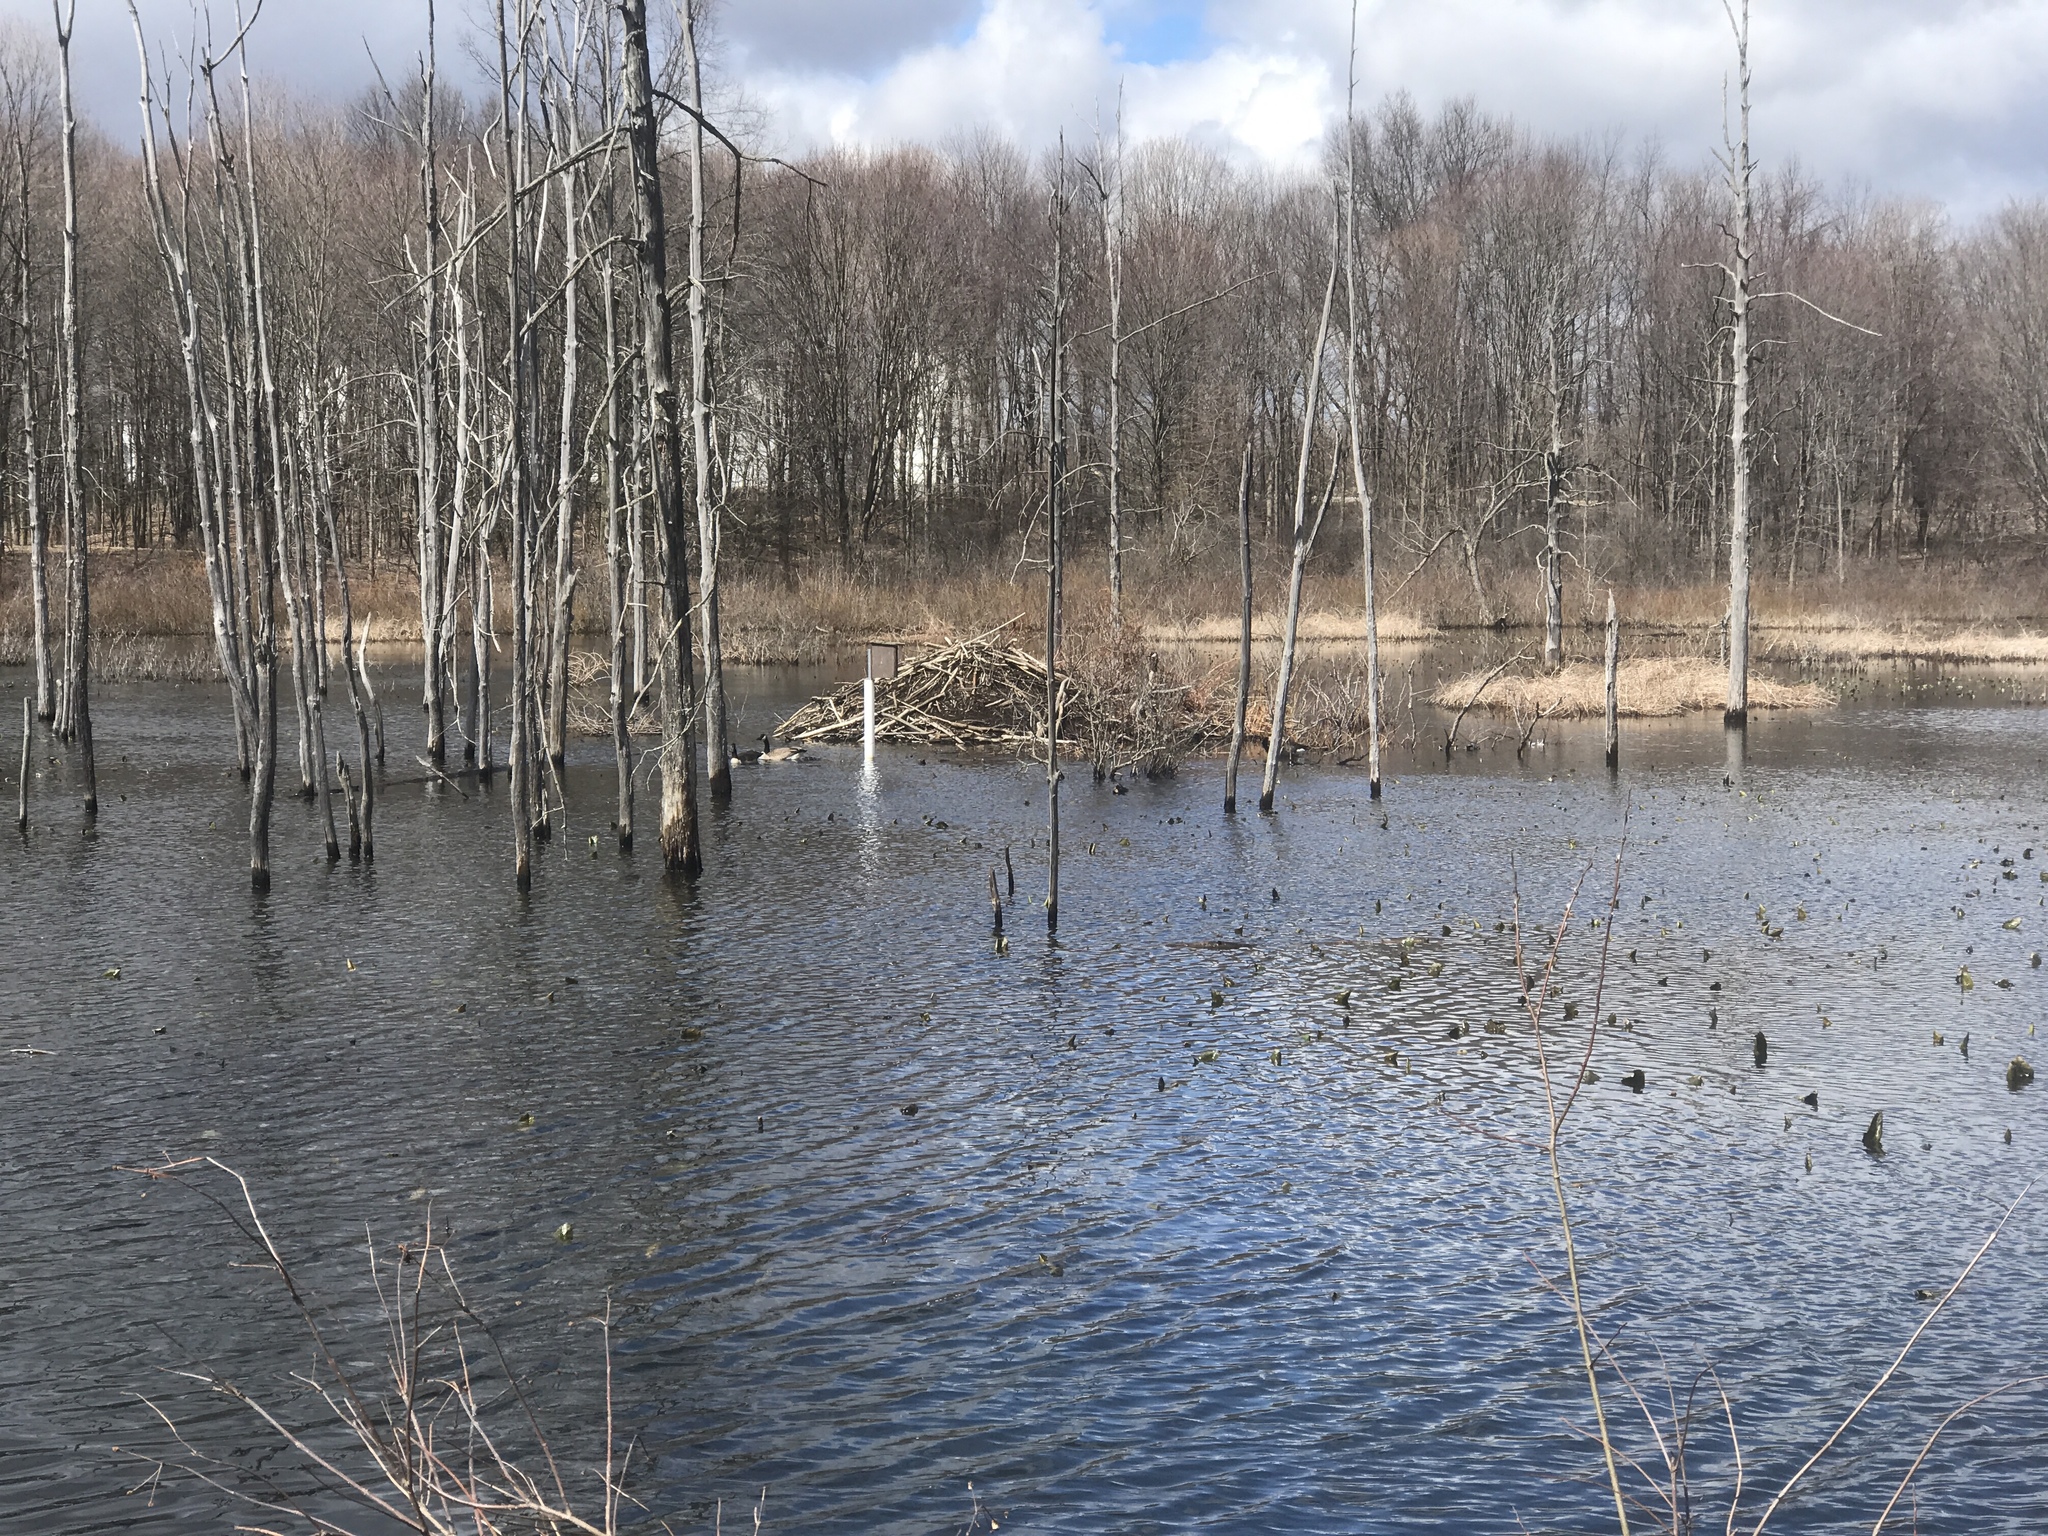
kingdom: Animalia
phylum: Chordata
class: Mammalia
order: Rodentia
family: Castoridae
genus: Castor
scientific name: Castor canadensis
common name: American beaver
